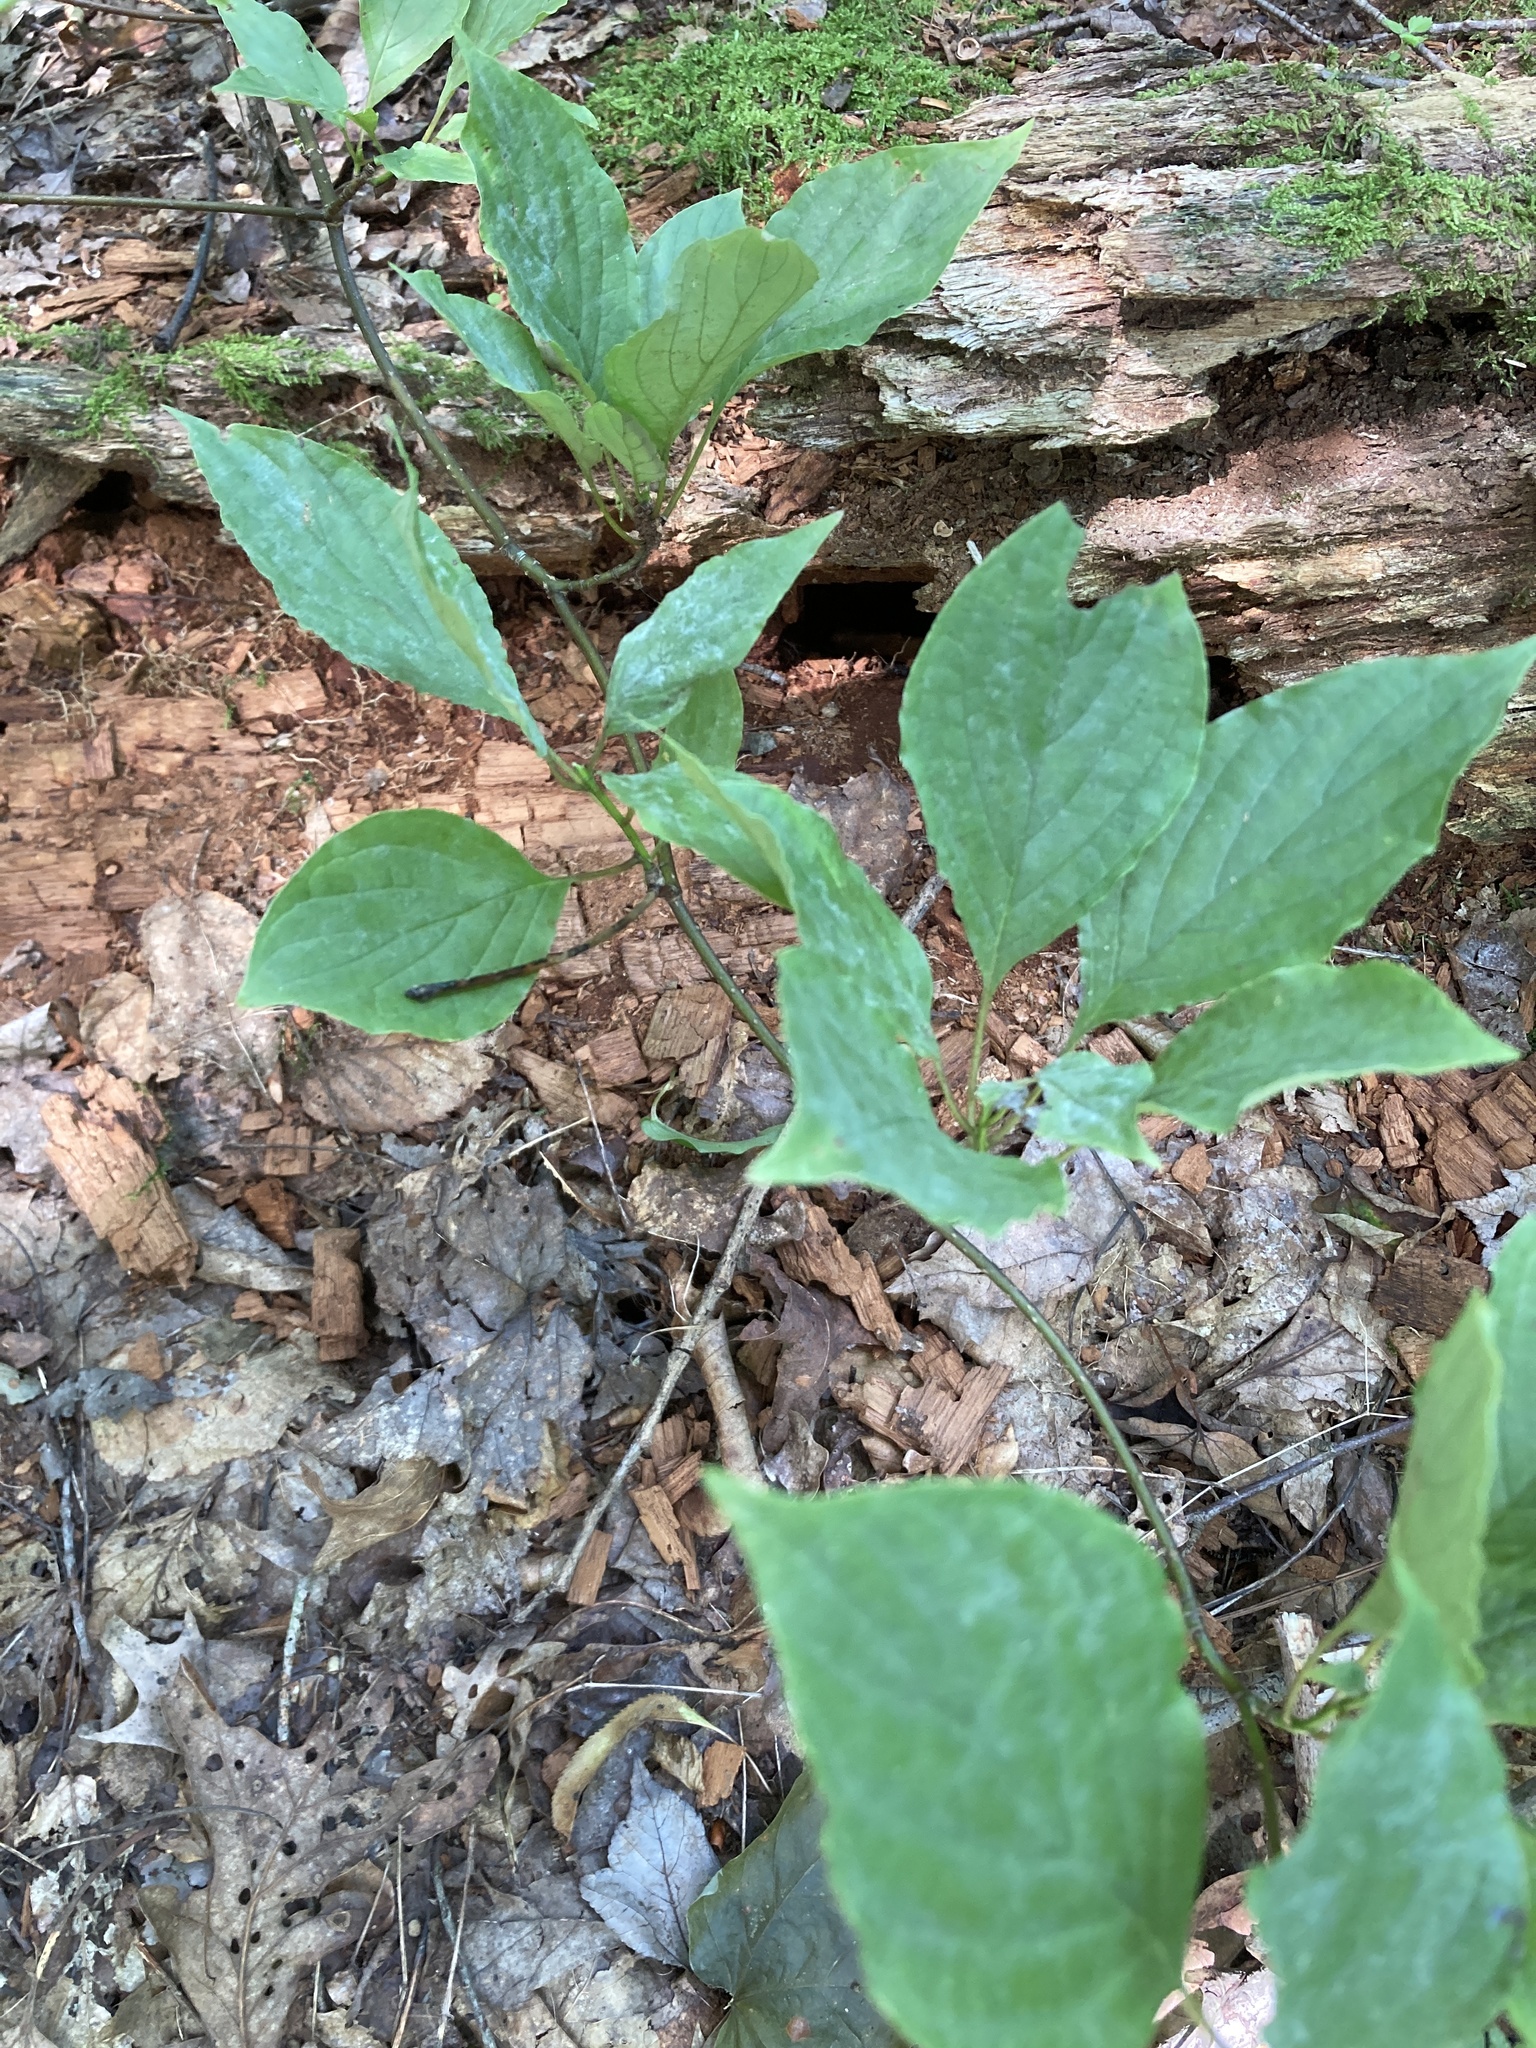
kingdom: Plantae
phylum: Tracheophyta
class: Magnoliopsida
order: Cornales
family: Cornaceae
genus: Cornus
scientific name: Cornus alternifolia
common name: Pagoda dogwood
